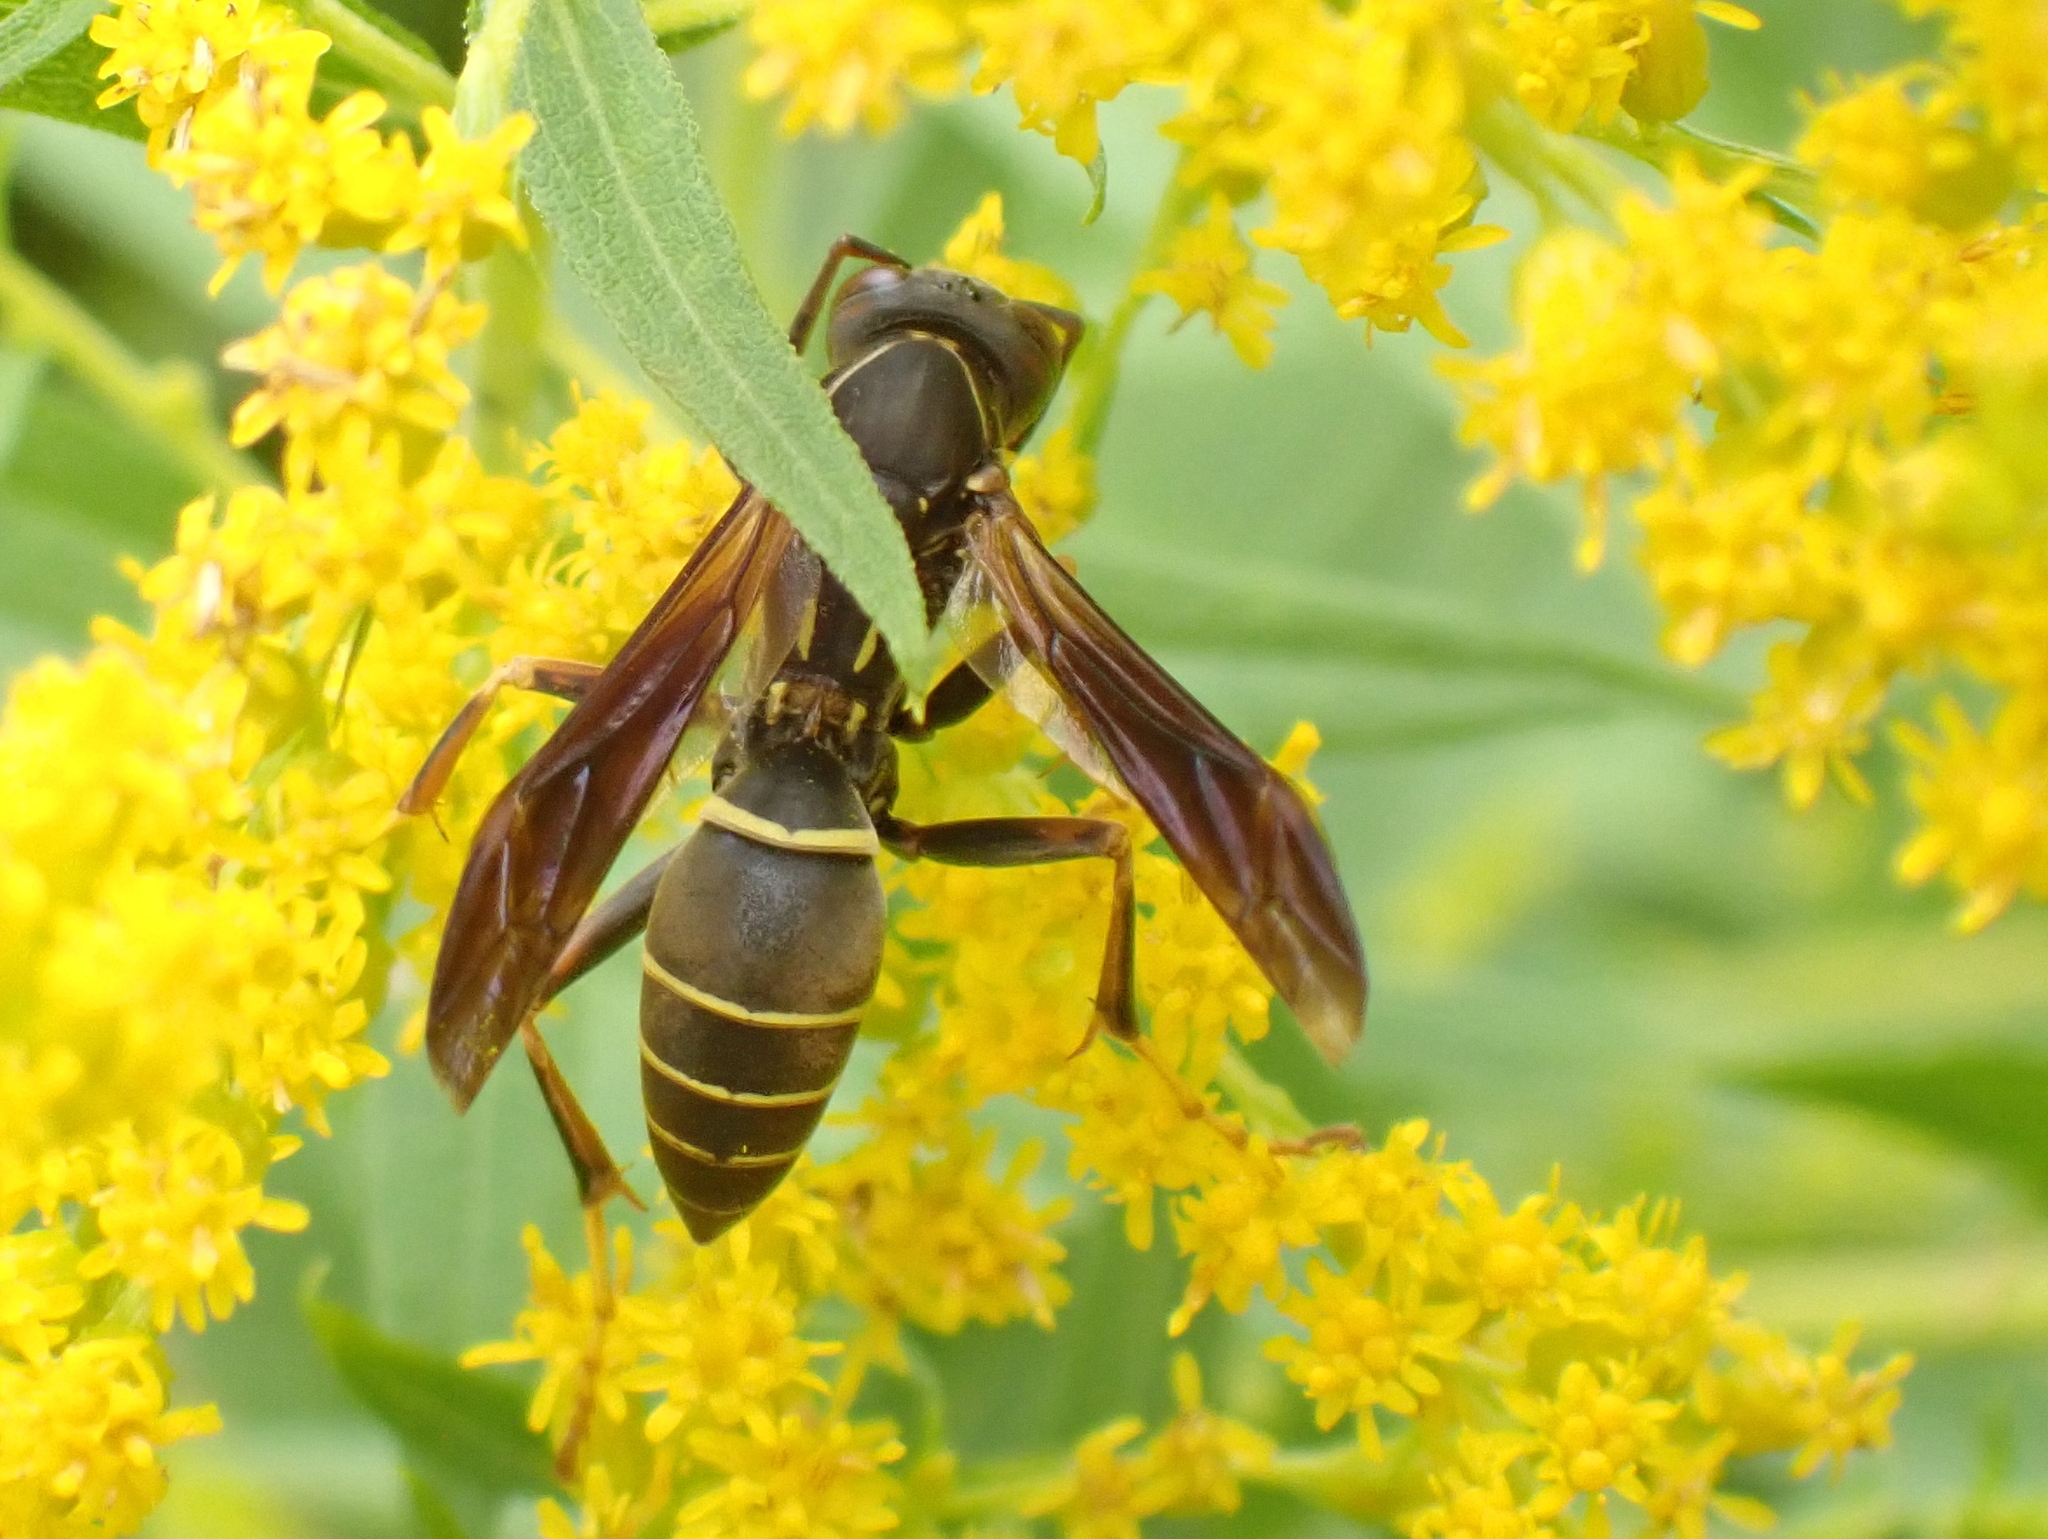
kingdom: Animalia
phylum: Arthropoda
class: Insecta
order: Hymenoptera
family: Eumenidae
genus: Polistes
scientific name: Polistes fuscatus
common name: Dark paper wasp
